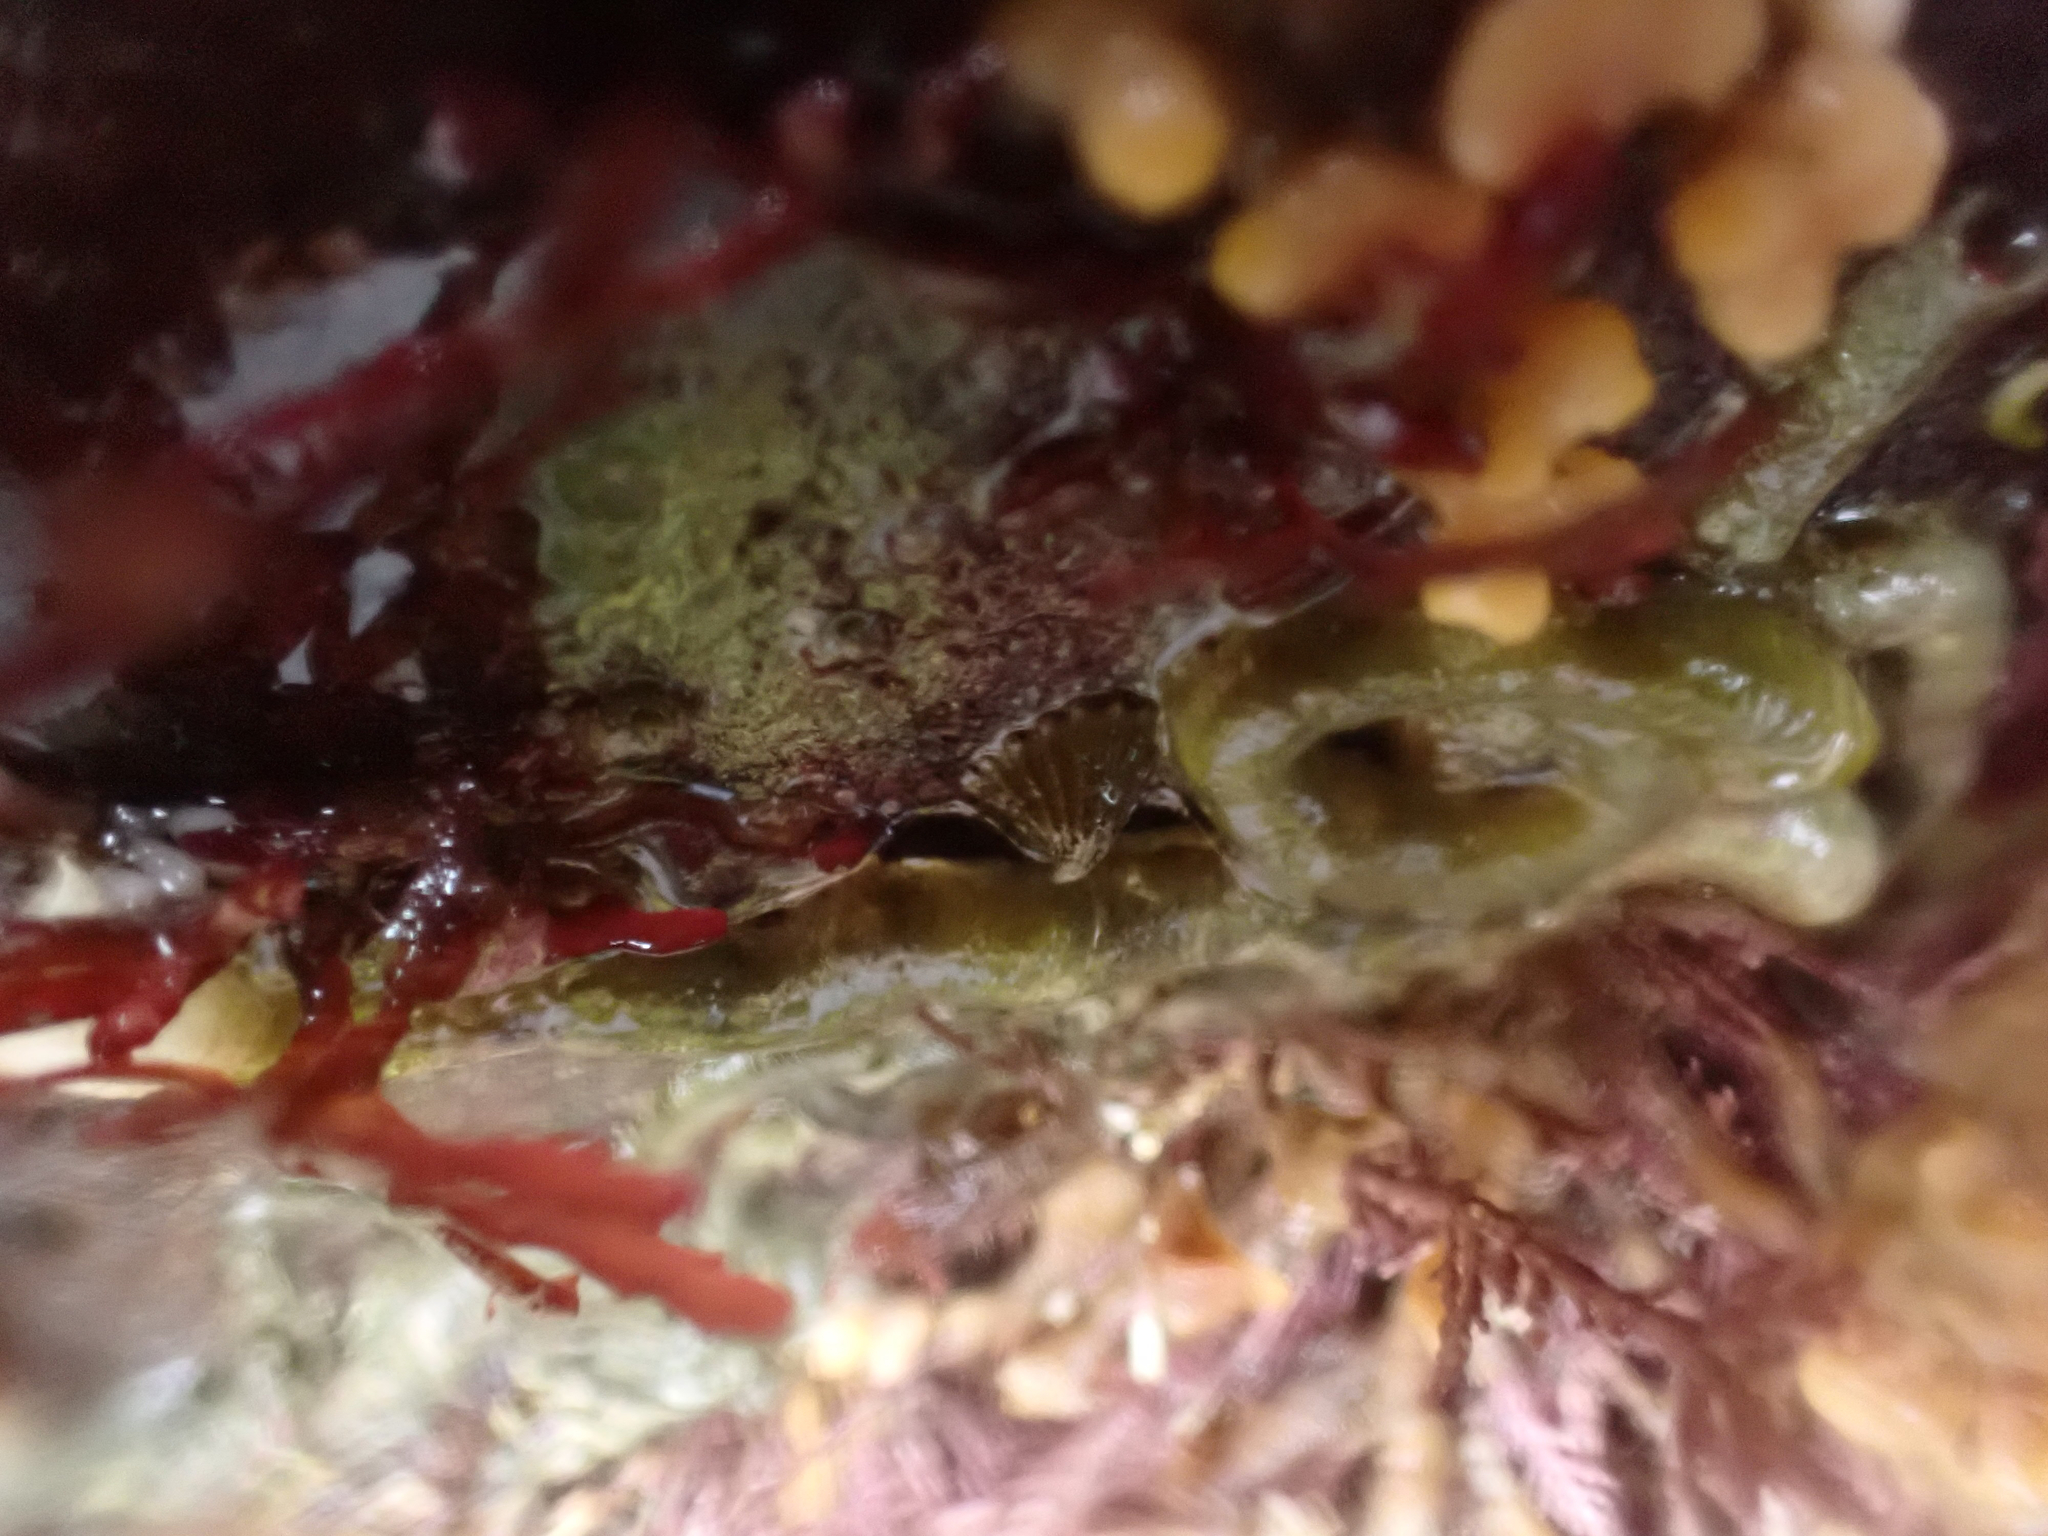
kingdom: Animalia
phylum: Mollusca
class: Gastropoda
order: Lepetellida
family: Fissurellidae
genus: Puncturella
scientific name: Puncturella cucullata
